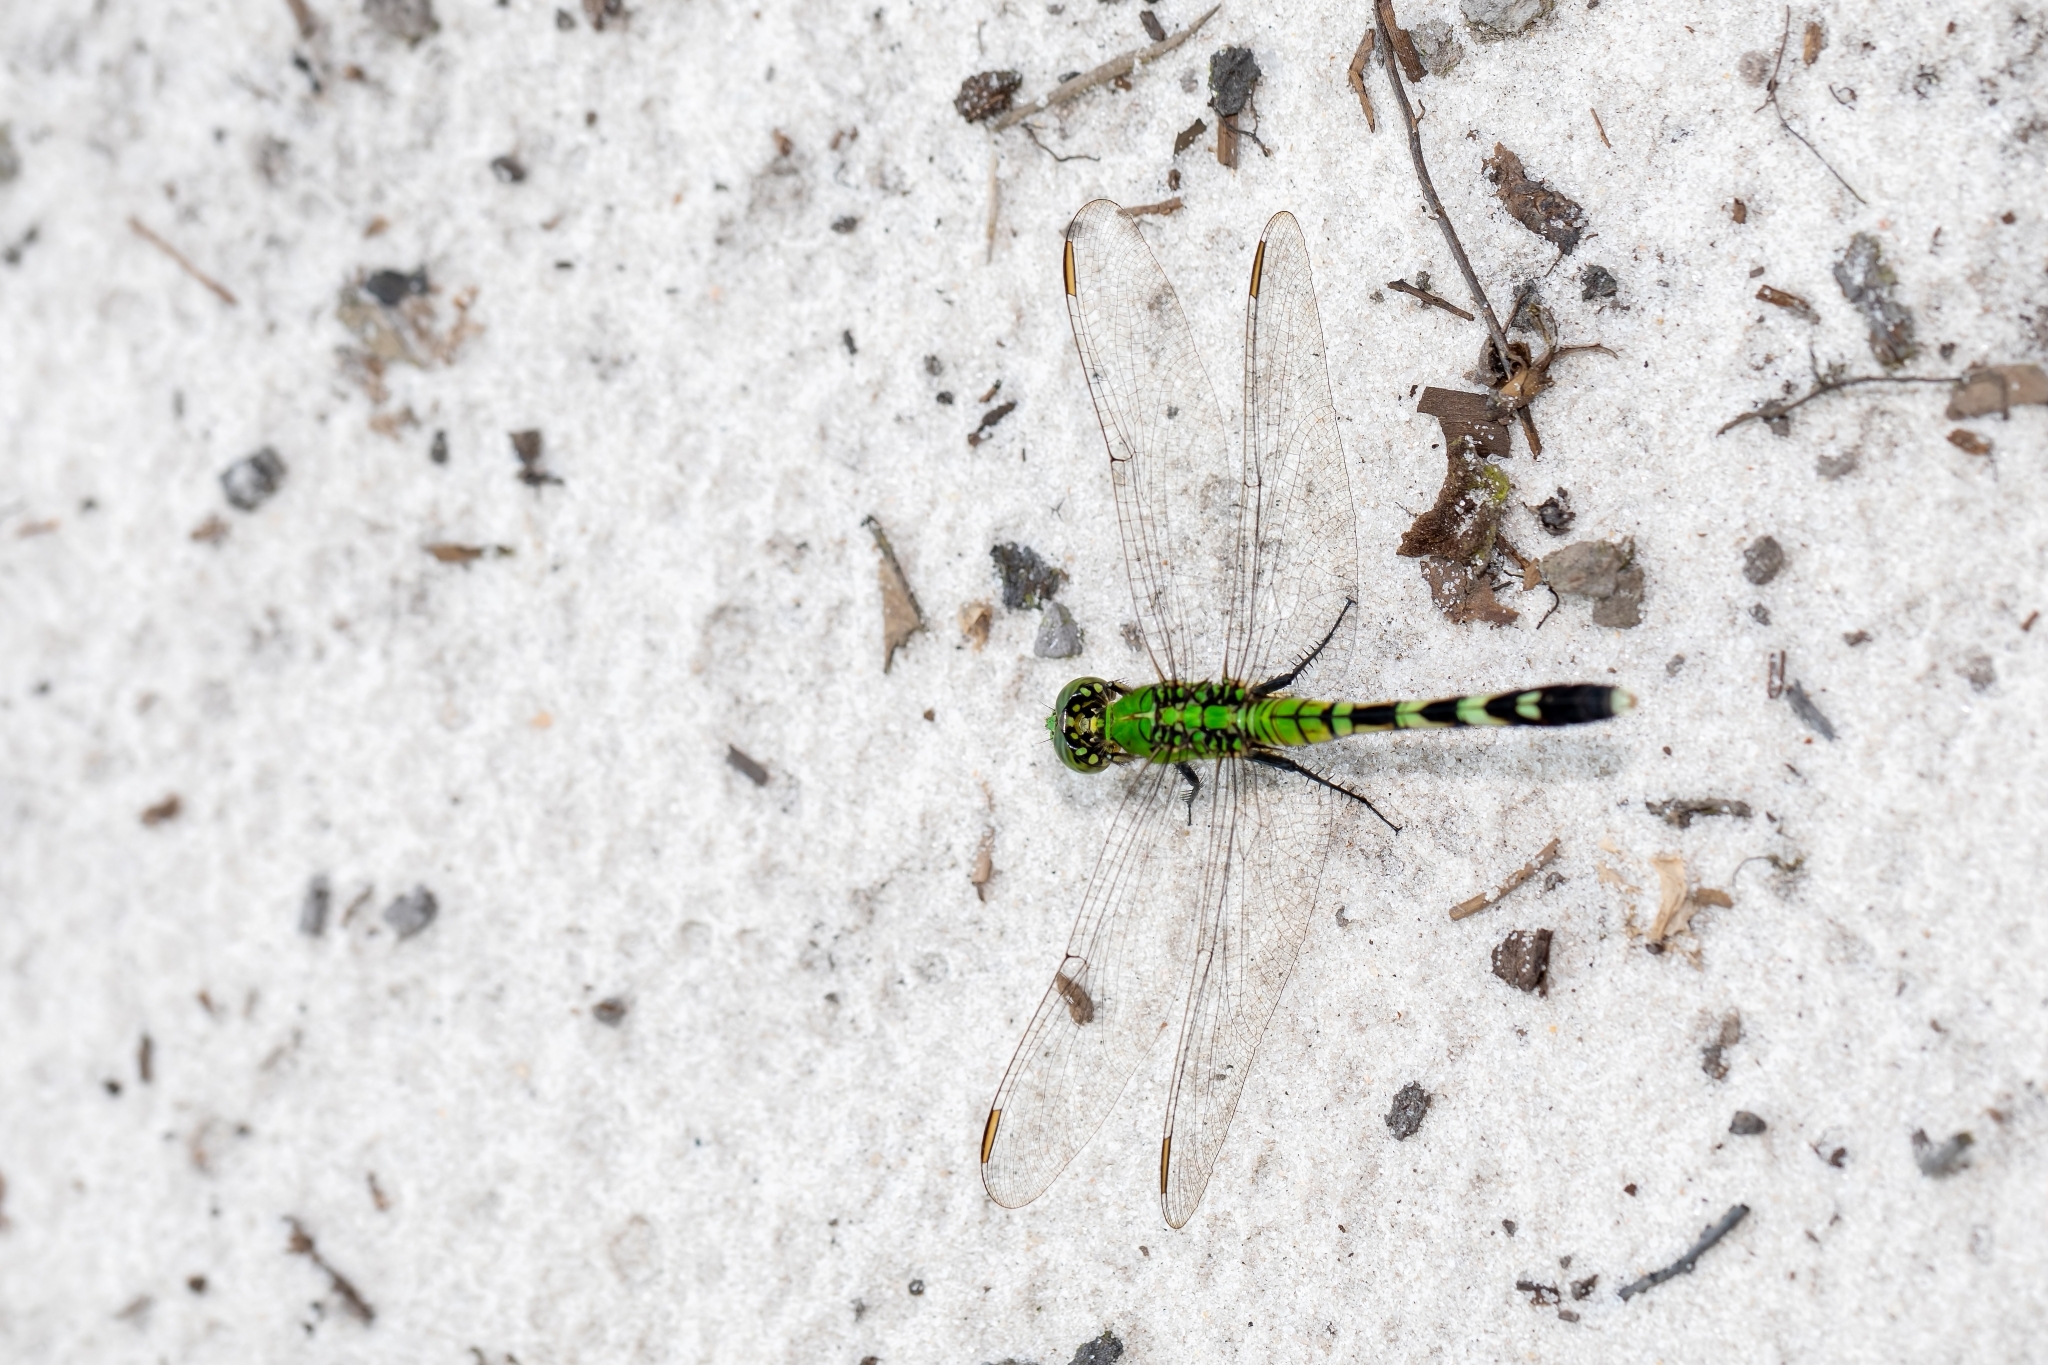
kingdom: Animalia
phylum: Arthropoda
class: Insecta
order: Odonata
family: Libellulidae
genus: Erythemis
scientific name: Erythemis simplicicollis
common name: Eastern pondhawk
